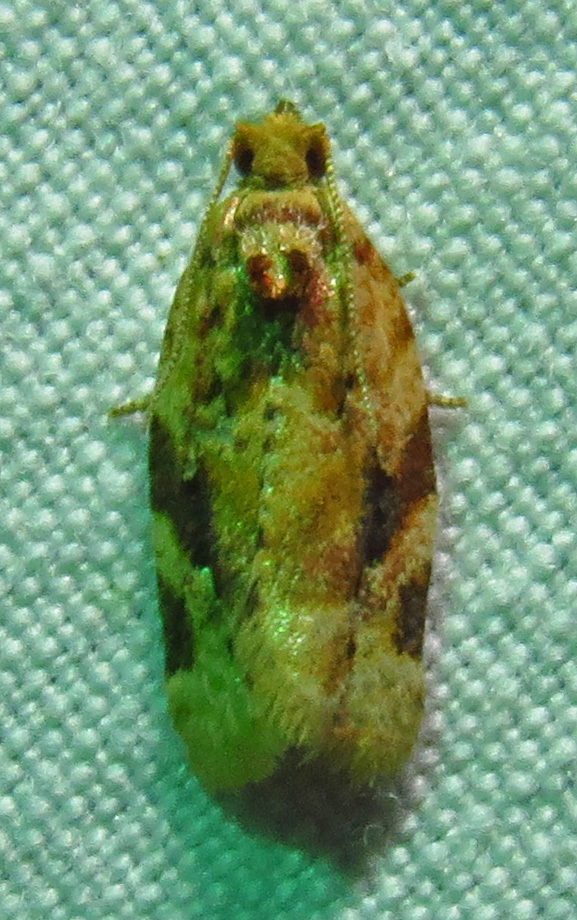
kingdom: Animalia
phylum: Arthropoda
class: Insecta
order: Lepidoptera
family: Tortricidae
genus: Argyrotaenia
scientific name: Argyrotaenia velutinana
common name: Red-banded leafroller moth
